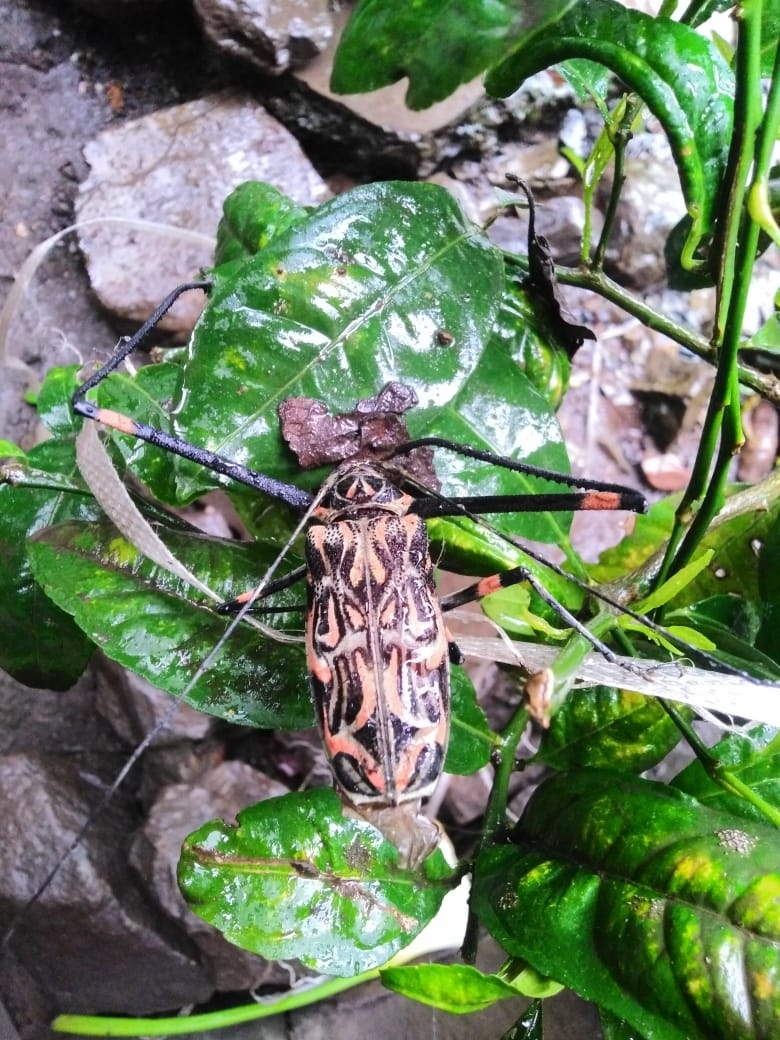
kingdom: Animalia
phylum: Arthropoda
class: Insecta
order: Coleoptera
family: Cerambycidae
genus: Acrocinus
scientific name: Acrocinus longimanus
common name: Arlequin
